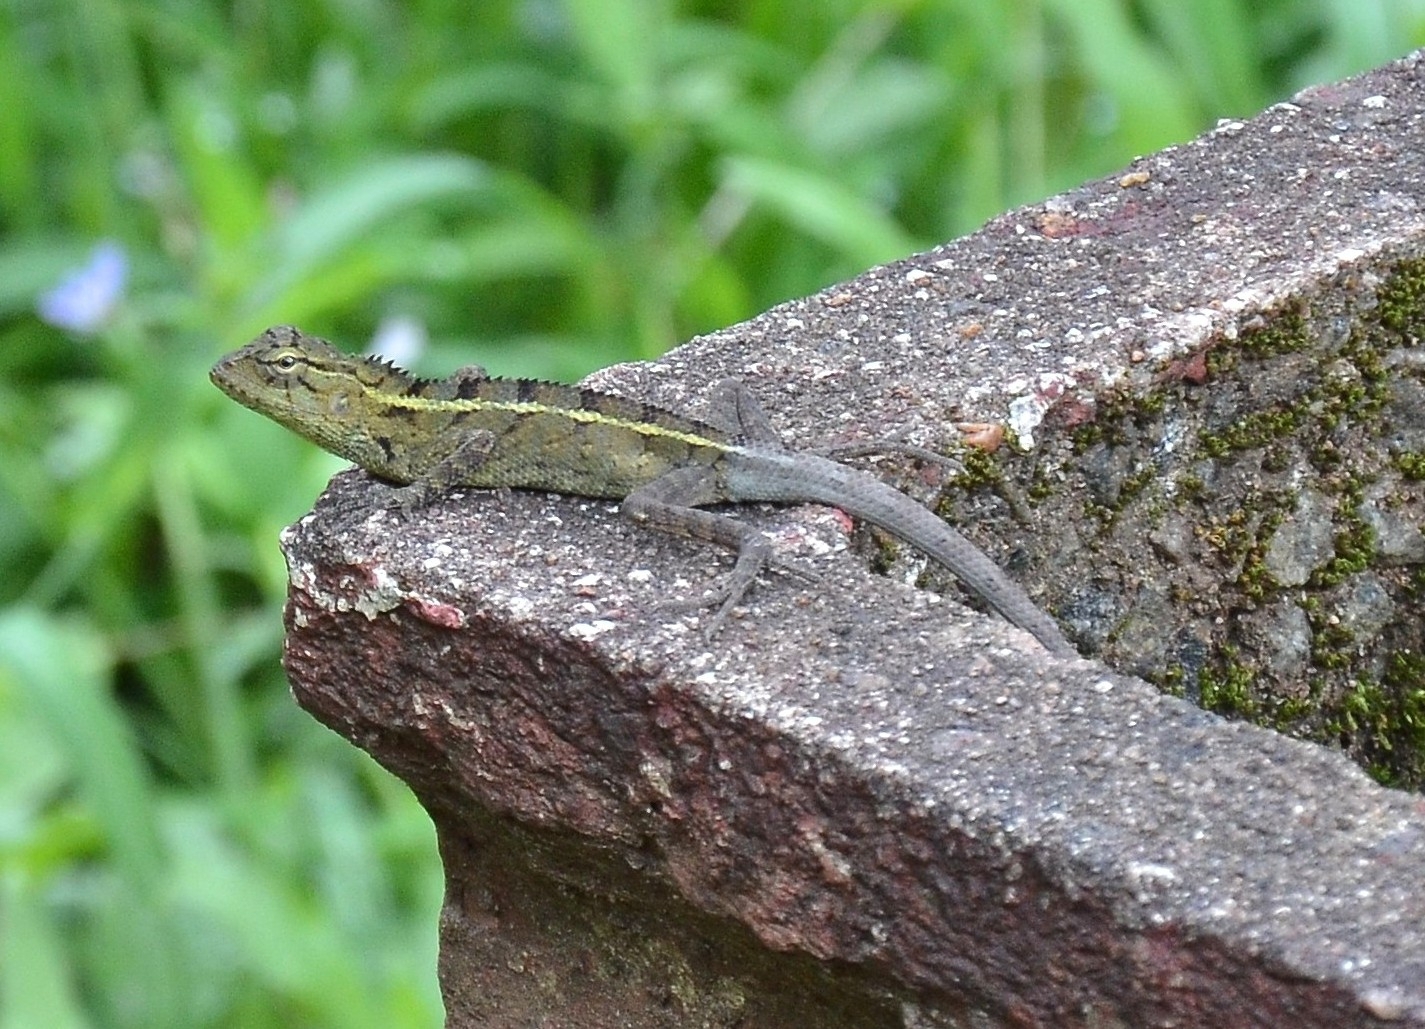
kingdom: Animalia
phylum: Chordata
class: Squamata
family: Agamidae
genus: Calotes
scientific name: Calotes versicolor
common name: Oriental garden lizard
